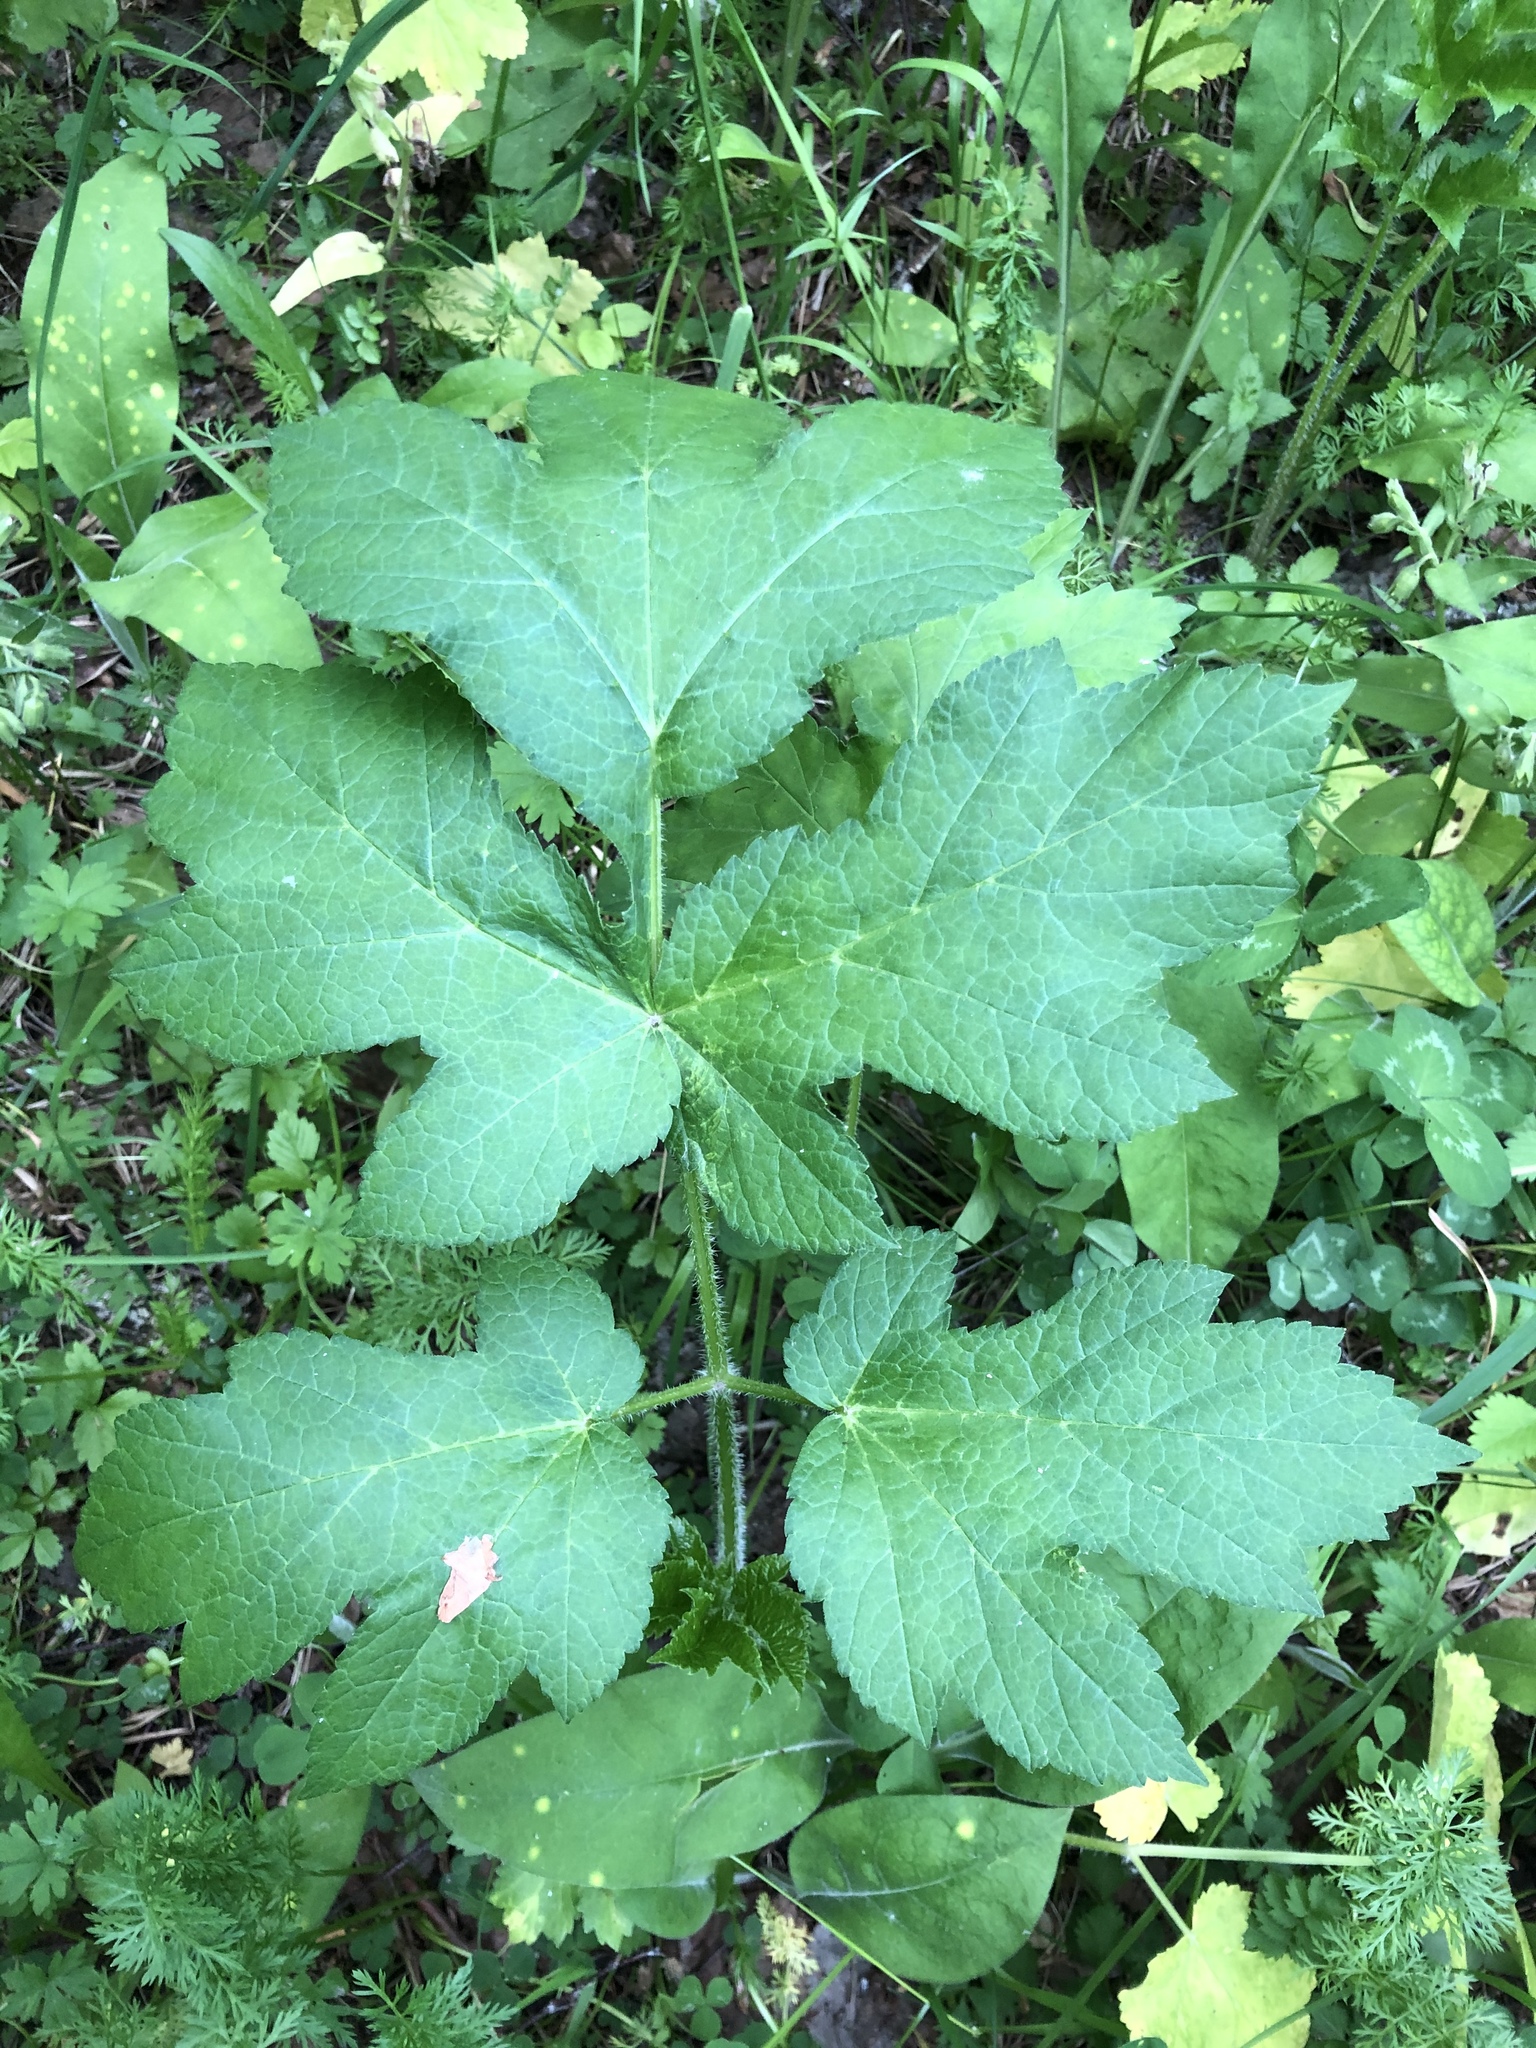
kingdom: Plantae
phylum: Tracheophyta
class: Magnoliopsida
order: Apiales
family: Apiaceae
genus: Heracleum
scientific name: Heracleum sphondylium
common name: Hogweed
